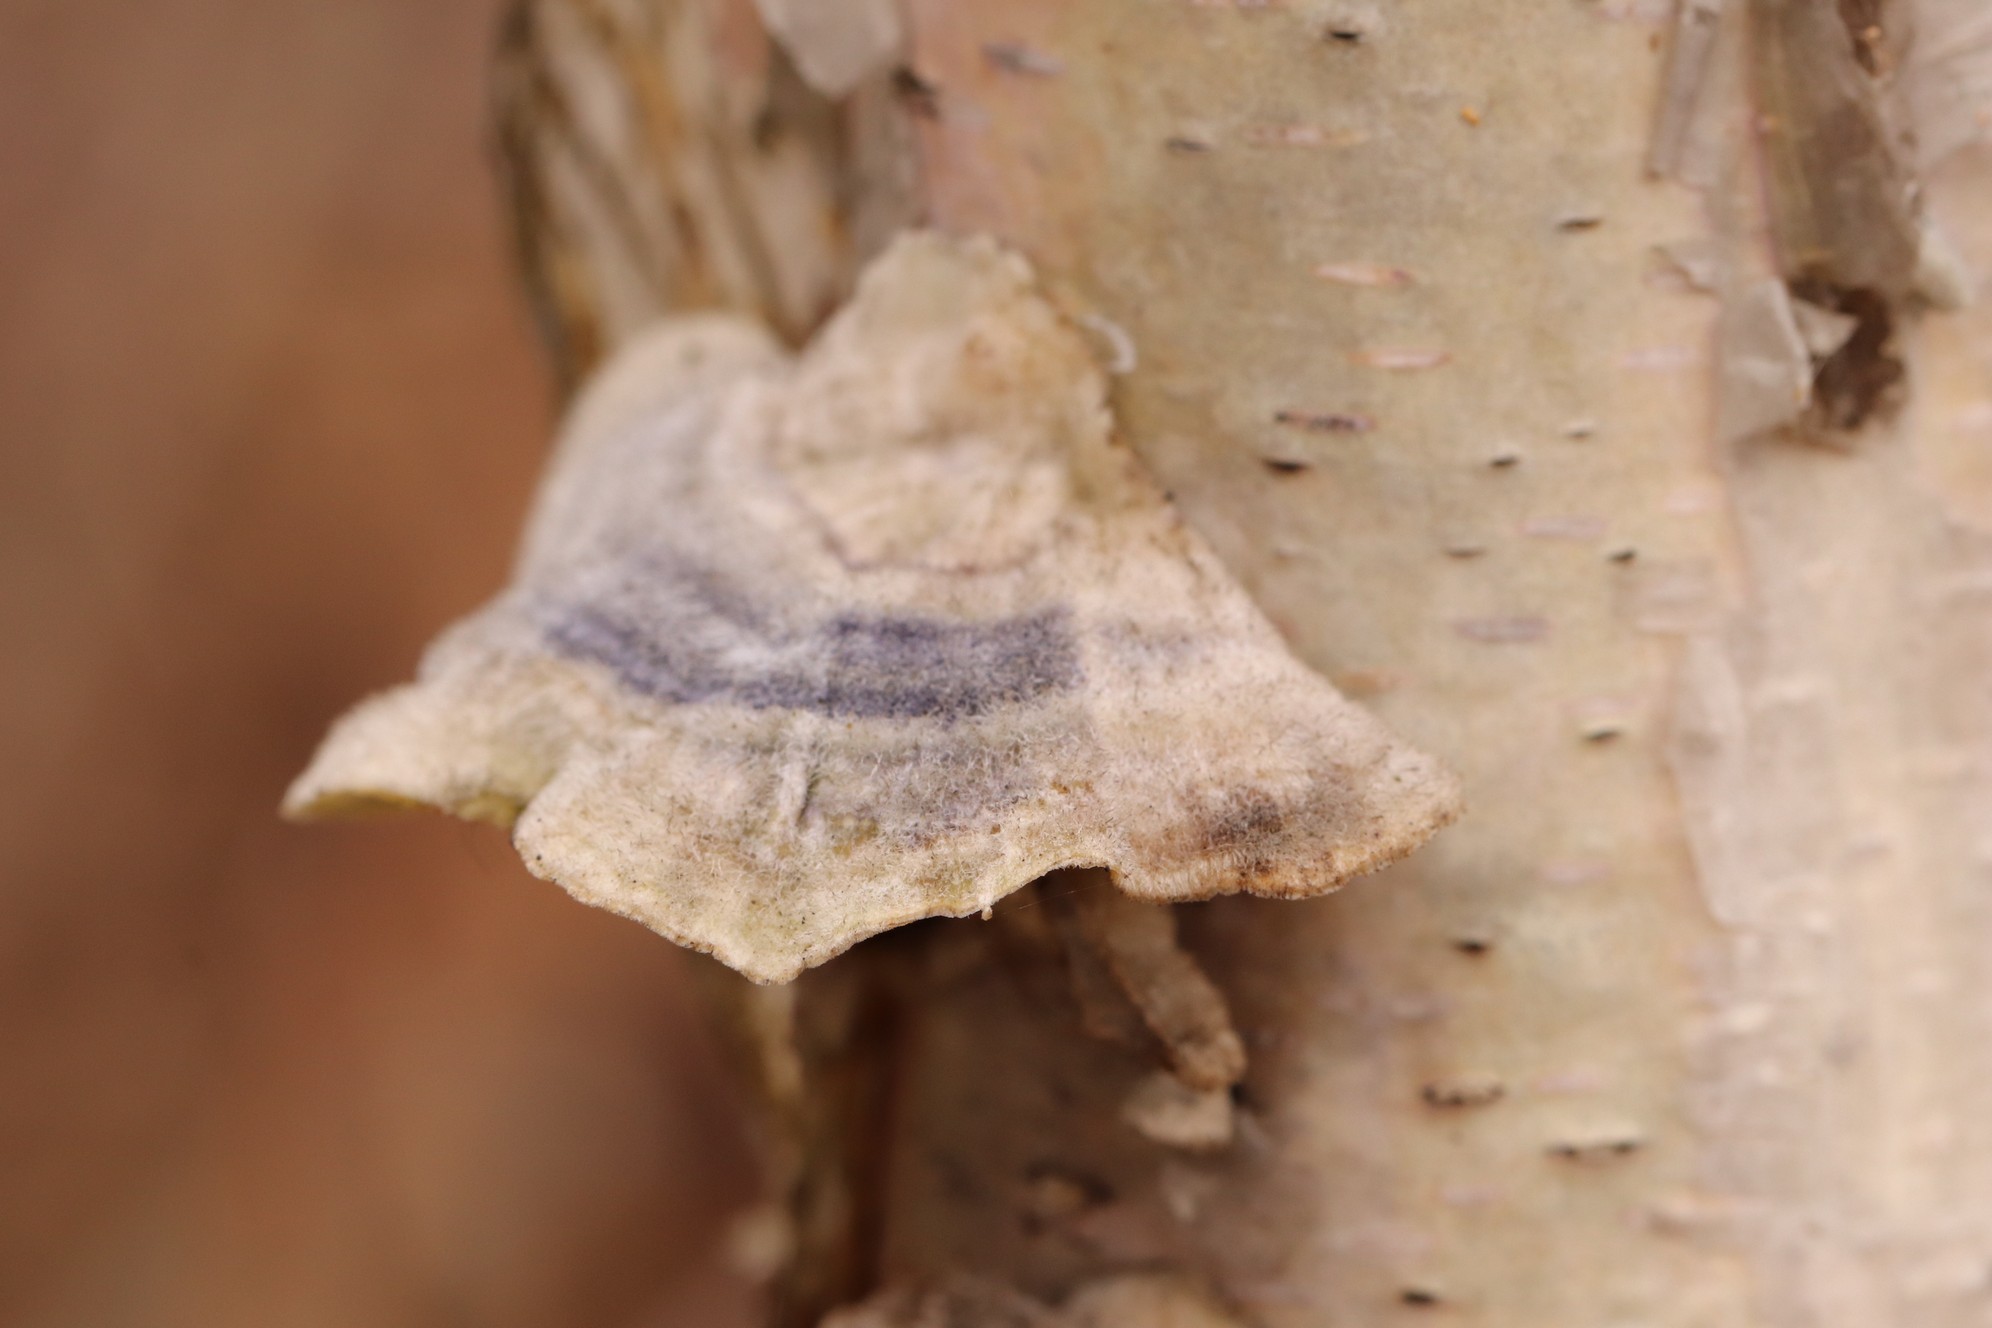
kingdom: Fungi
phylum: Basidiomycota
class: Agaricomycetes
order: Polyporales
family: Polyporaceae
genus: Trametes
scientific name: Trametes versicolor
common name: Turkeytail
